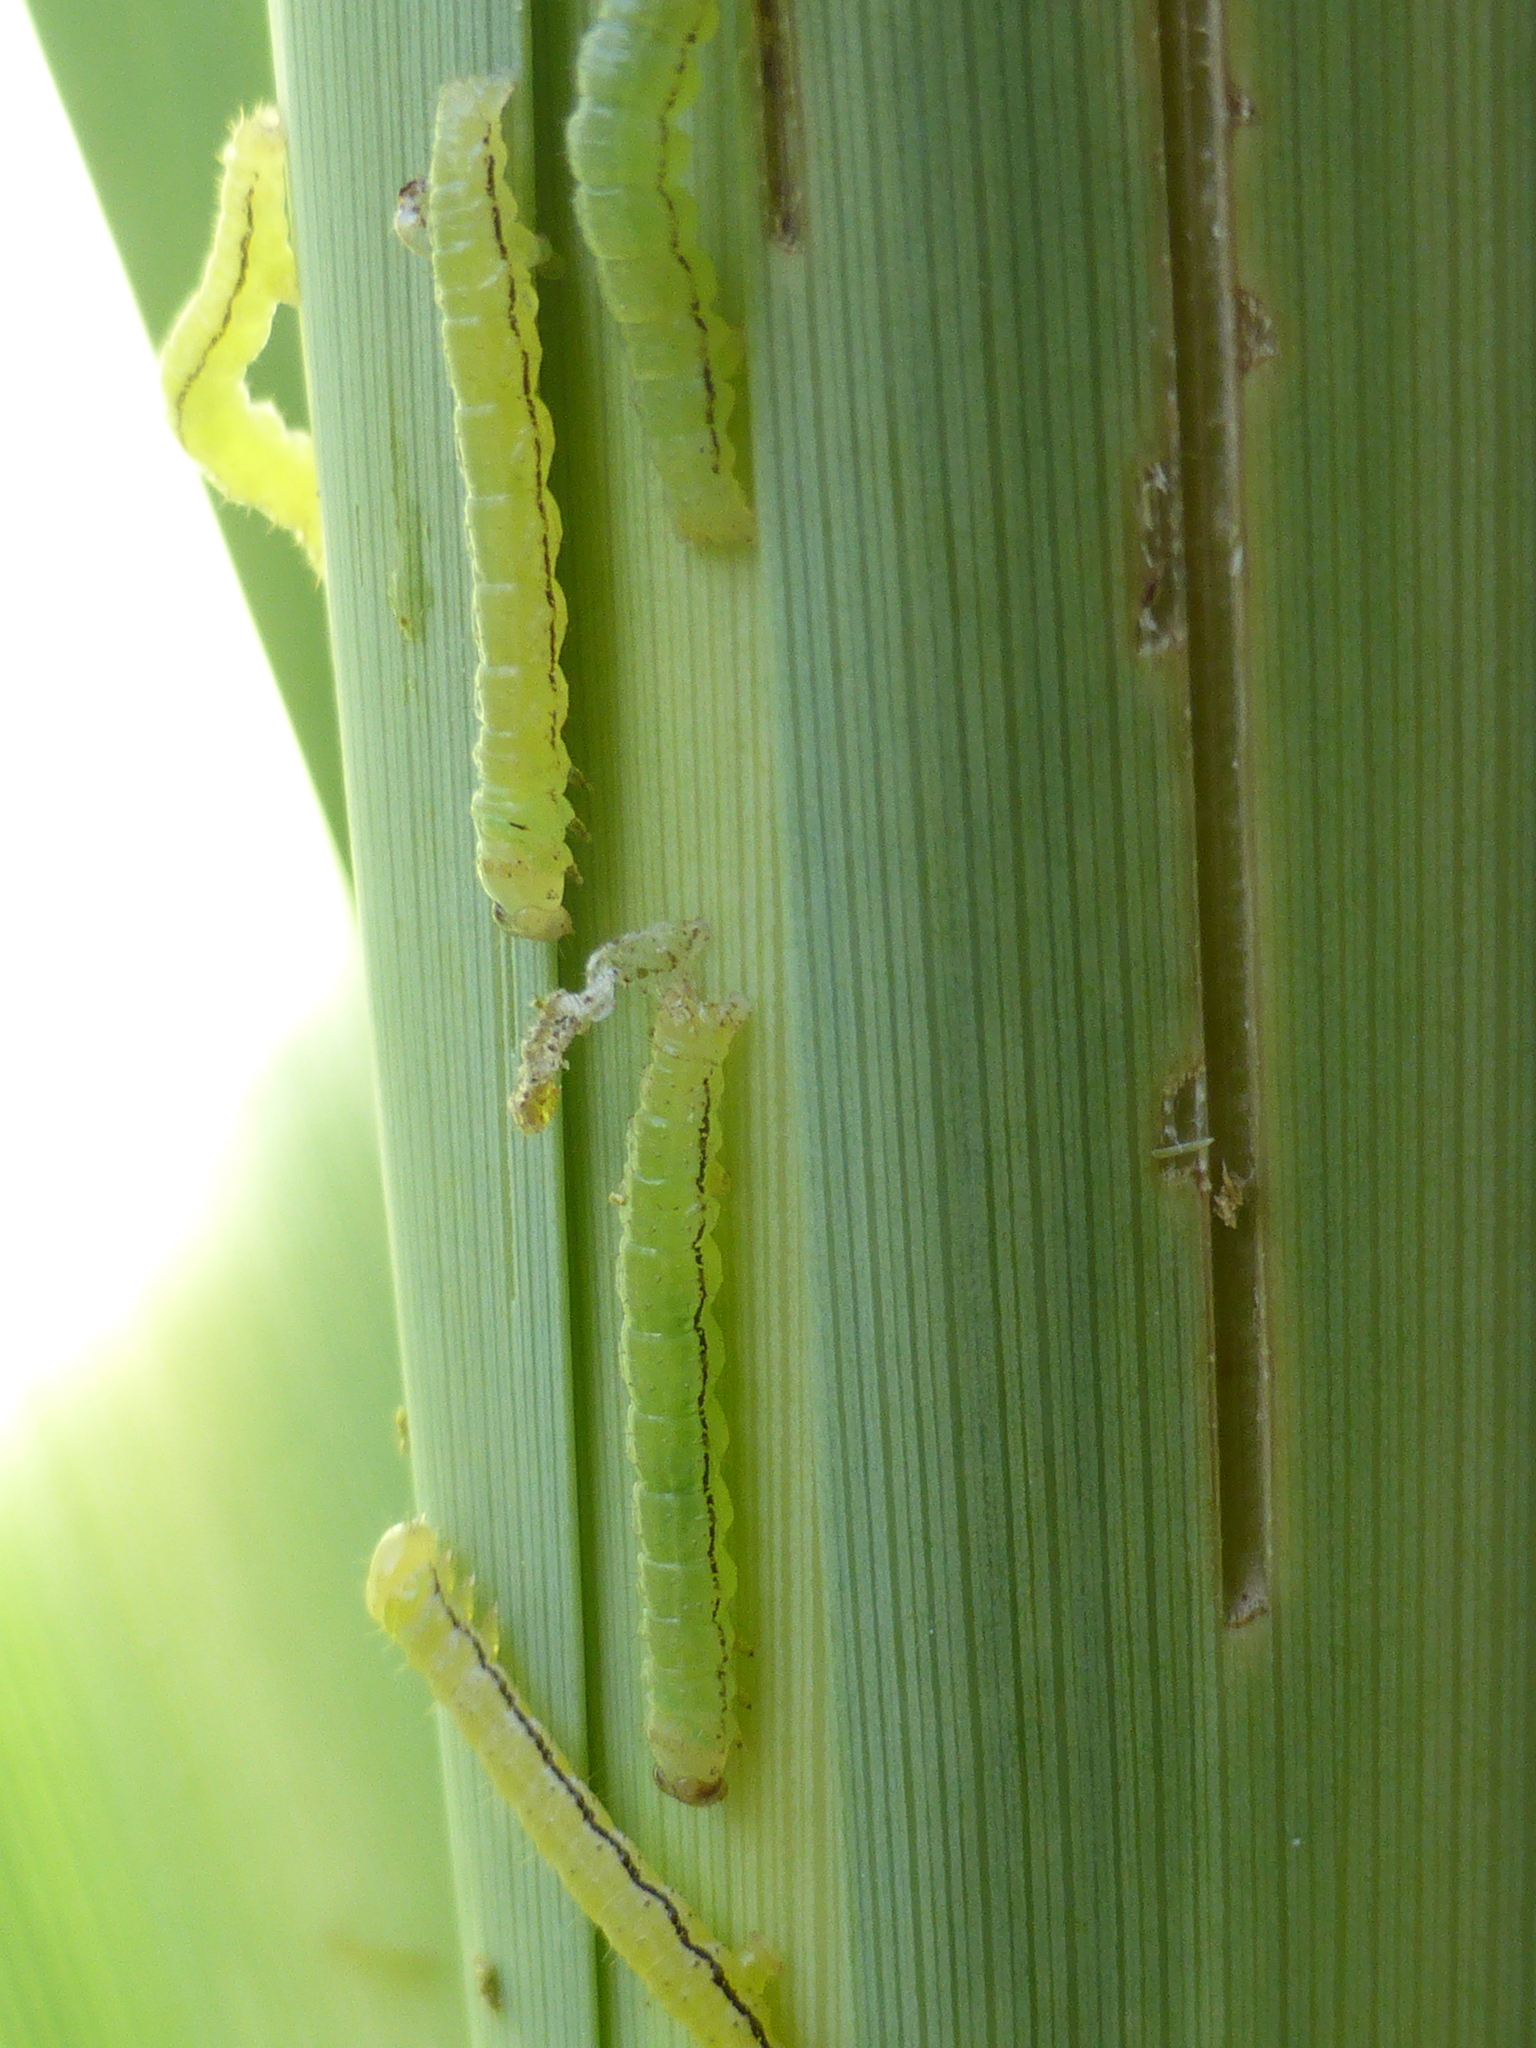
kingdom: Animalia
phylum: Arthropoda
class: Insecta
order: Lepidoptera
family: Geometridae
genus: Epiphryne
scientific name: Epiphryne verriculata
